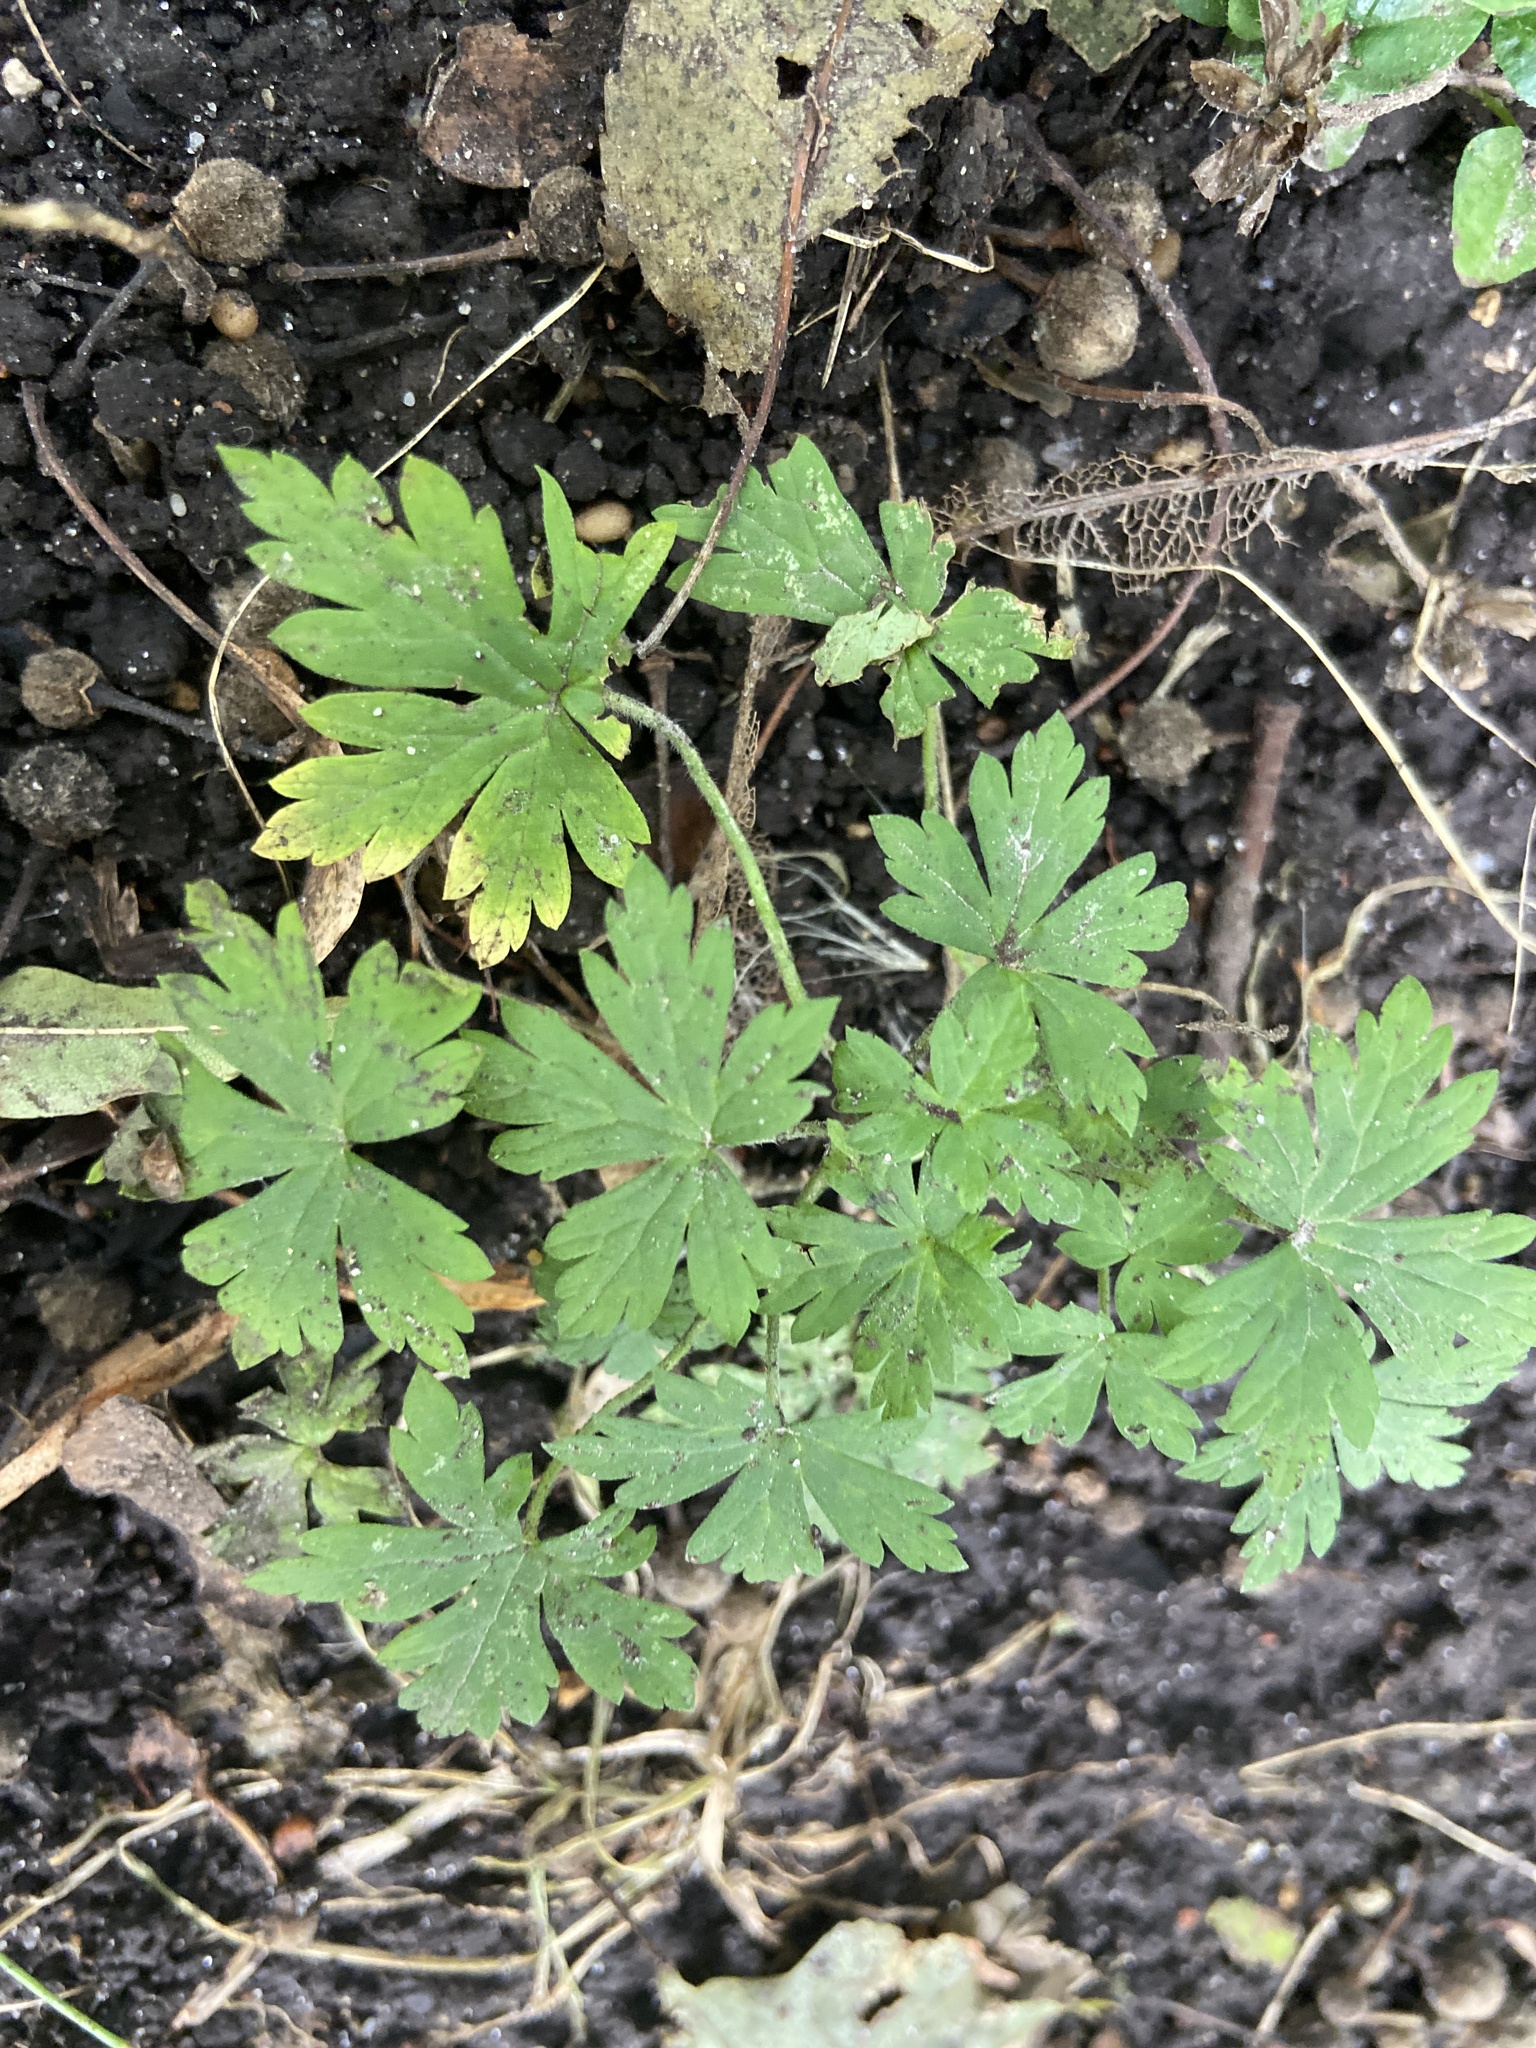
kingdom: Plantae
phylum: Tracheophyta
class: Magnoliopsida
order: Geraniales
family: Geraniaceae
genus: Geranium
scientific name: Geranium sibiricum
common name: Siberian crane's-bill
